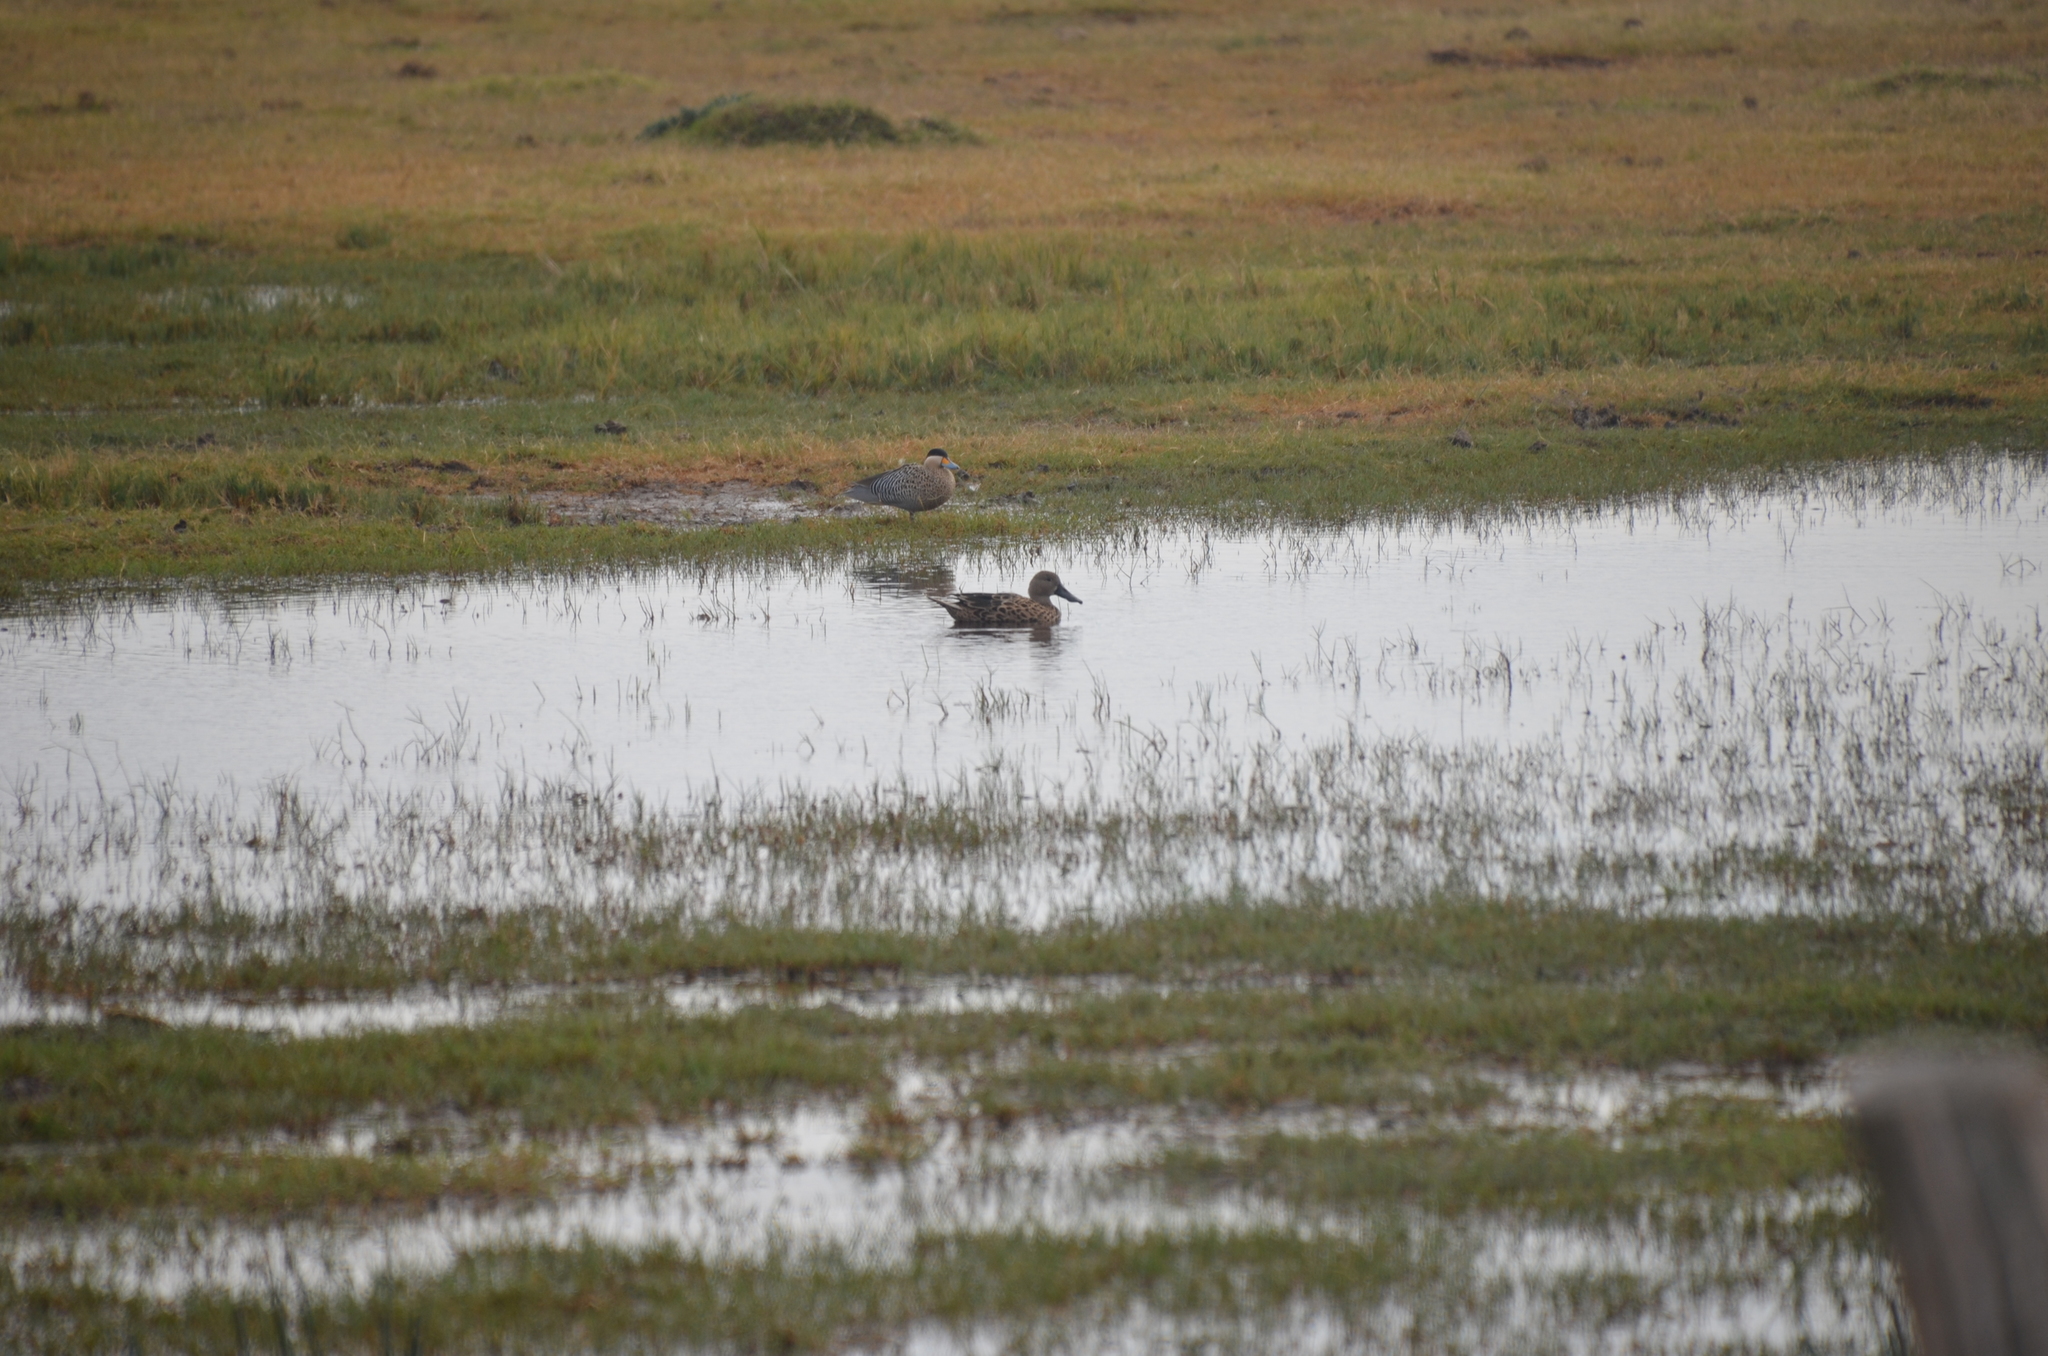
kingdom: Animalia
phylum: Chordata
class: Aves
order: Anseriformes
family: Anatidae
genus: Spatula
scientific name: Spatula platalea
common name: Red shoveler
